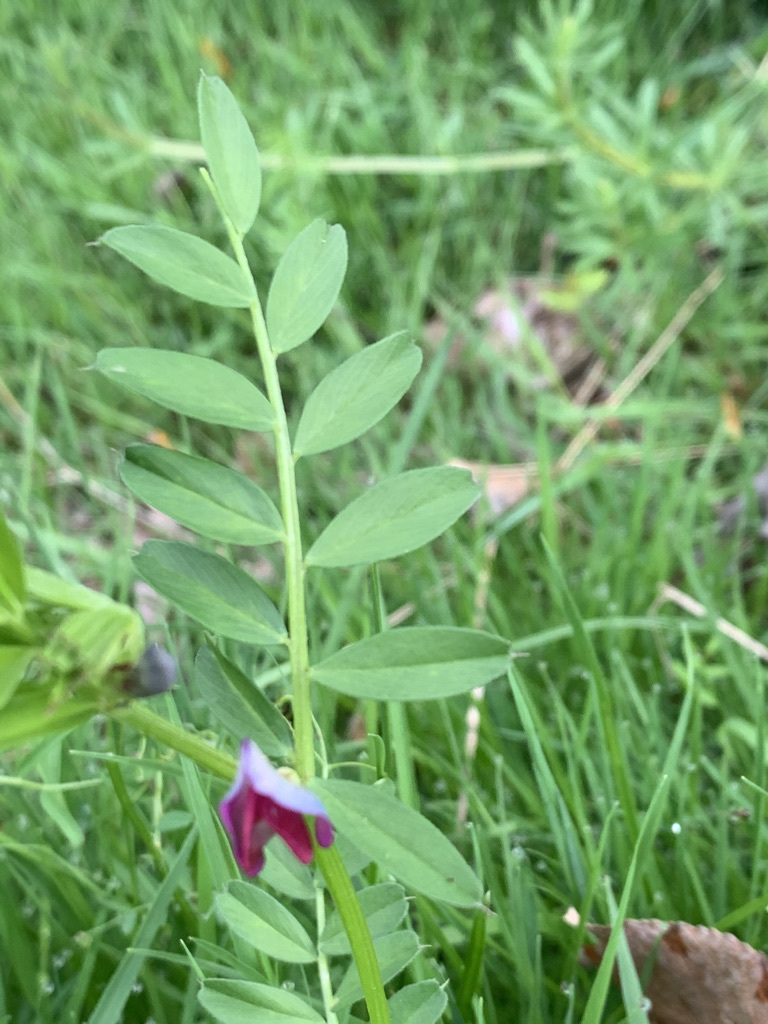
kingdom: Plantae
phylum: Tracheophyta
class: Magnoliopsida
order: Fabales
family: Fabaceae
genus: Vicia
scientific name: Vicia sativa
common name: Garden vetch
